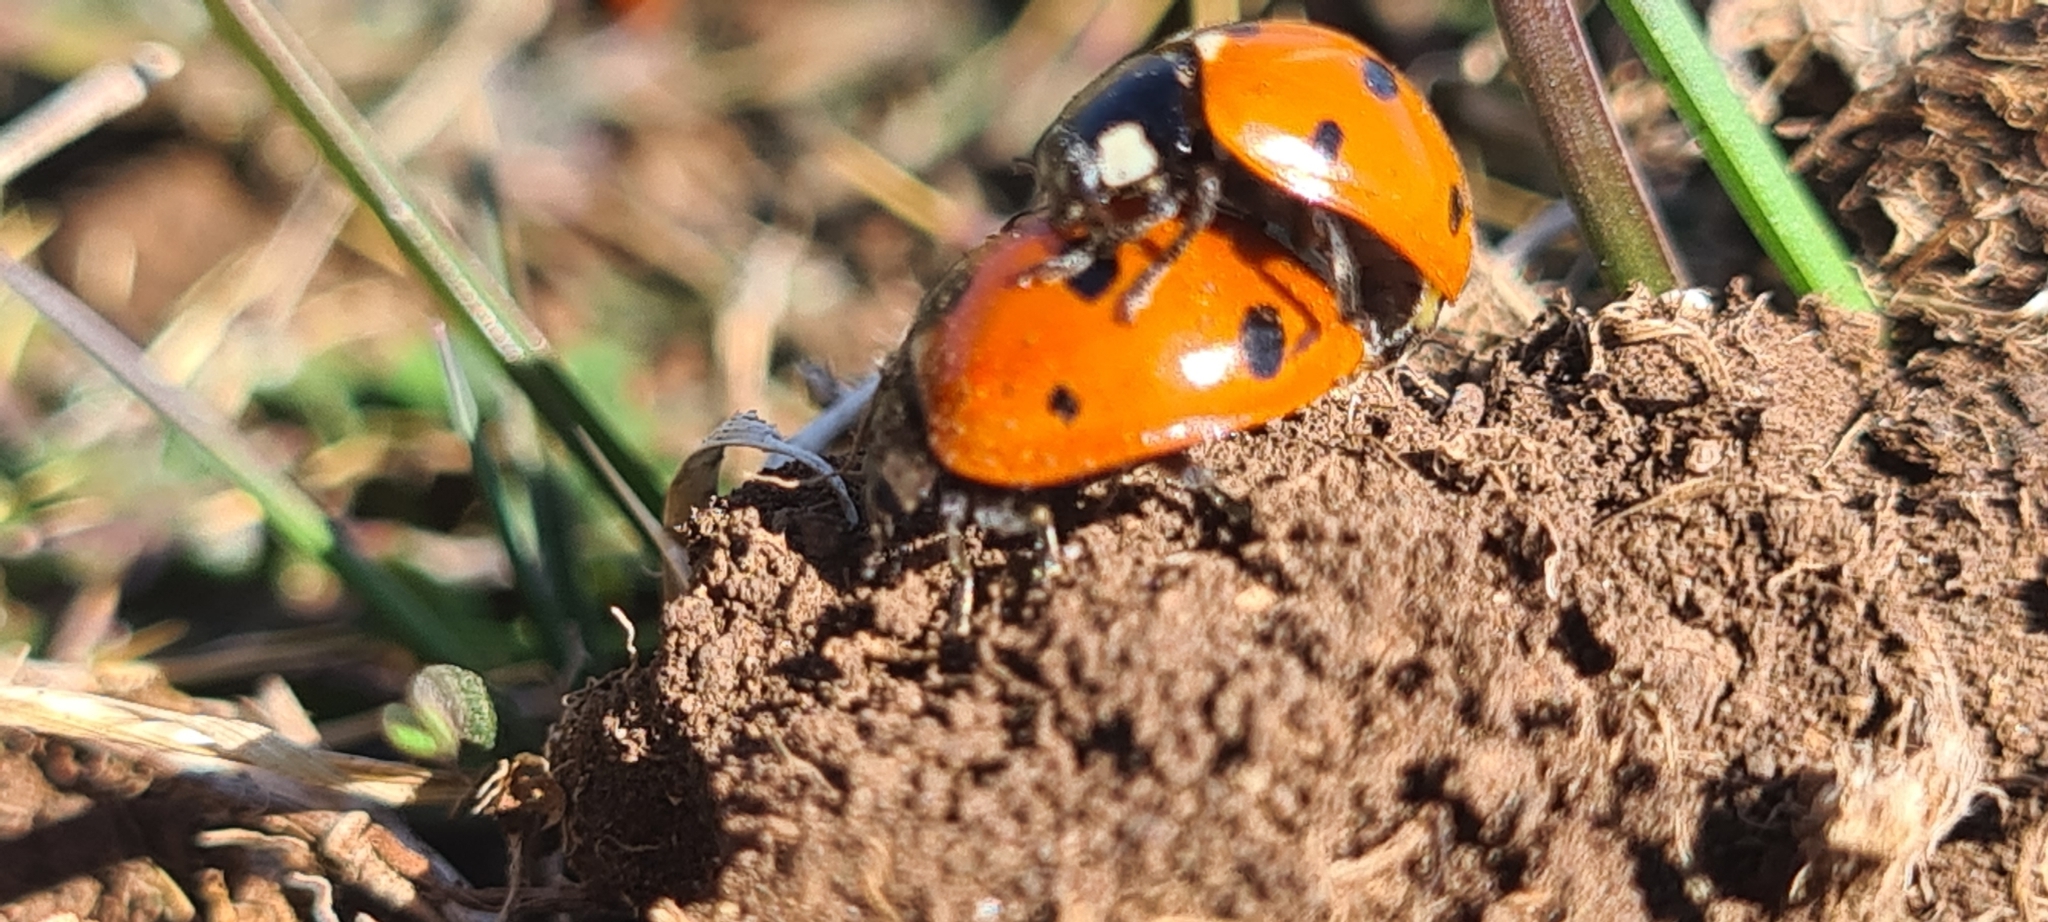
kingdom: Animalia
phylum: Arthropoda
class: Insecta
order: Coleoptera
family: Coccinellidae
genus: Coccinella
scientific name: Coccinella septempunctata
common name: Sevenspotted lady beetle
